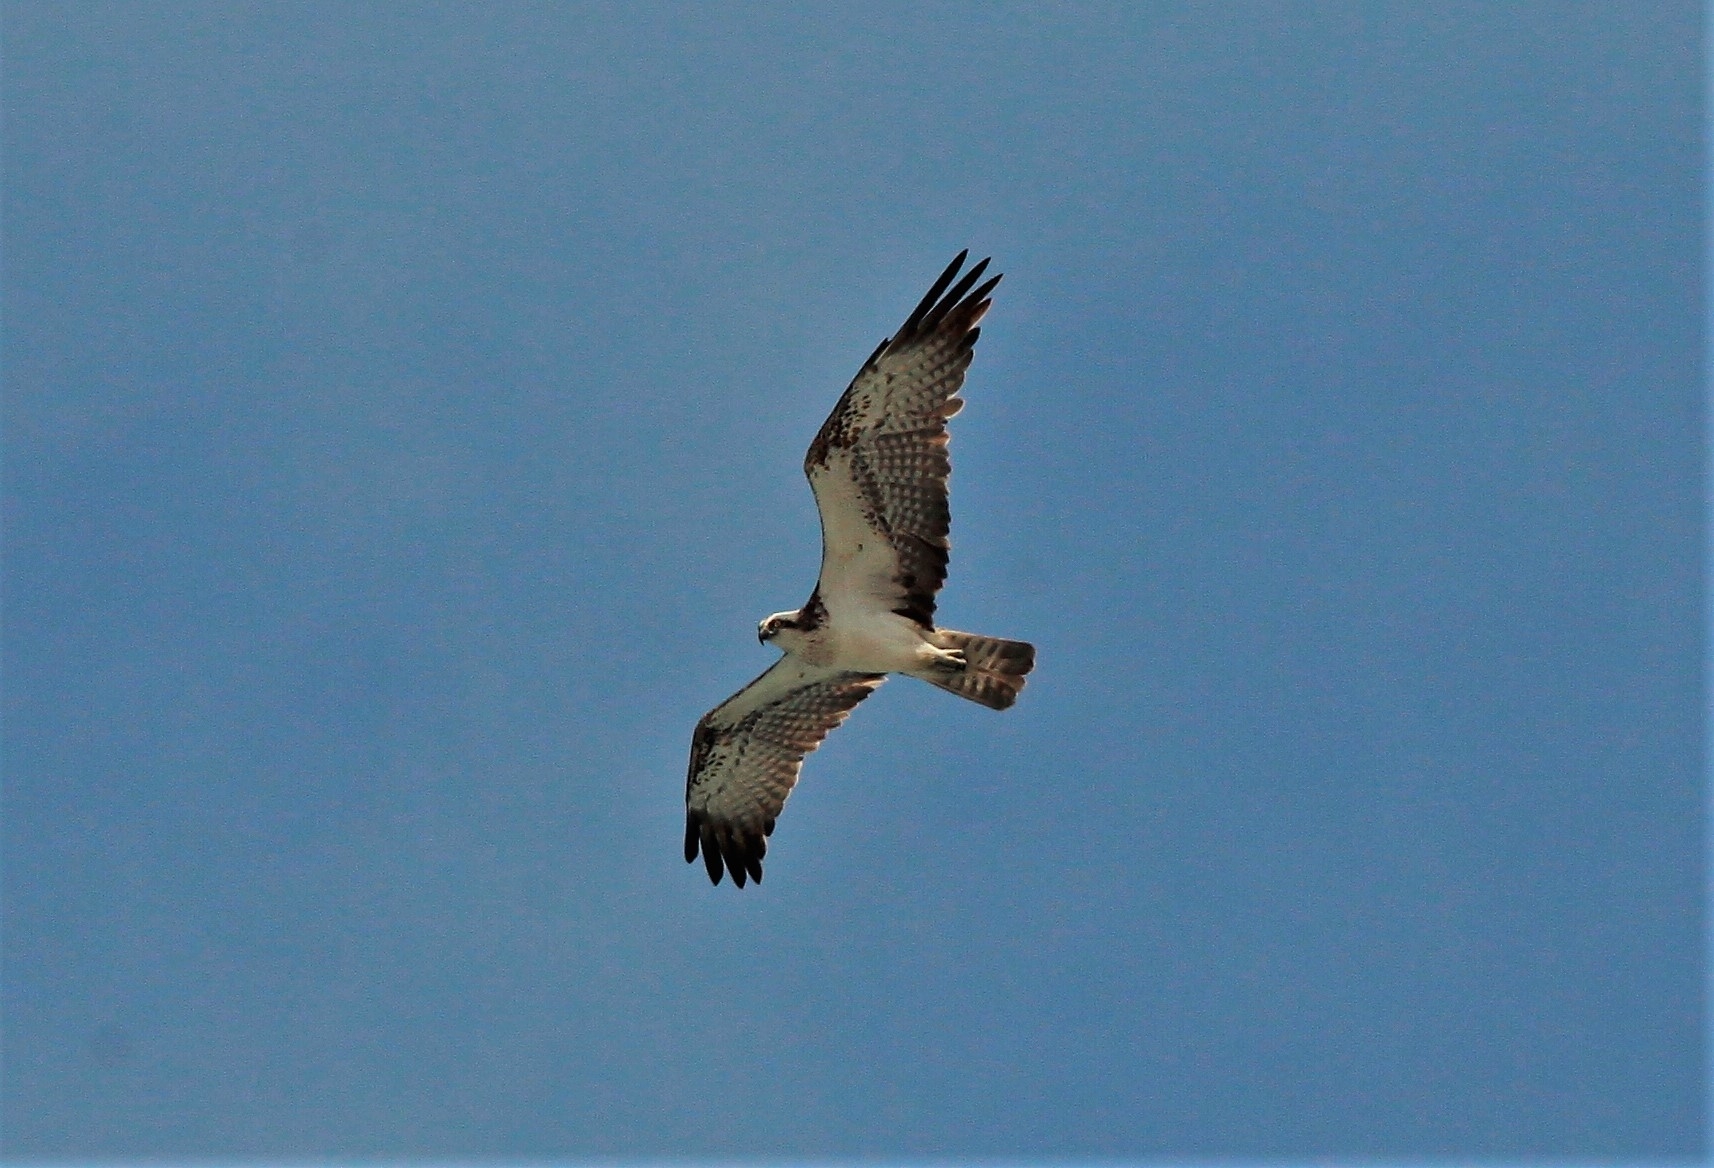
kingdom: Animalia
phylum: Chordata
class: Aves
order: Accipitriformes
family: Pandionidae
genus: Pandion
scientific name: Pandion haliaetus
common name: Osprey
